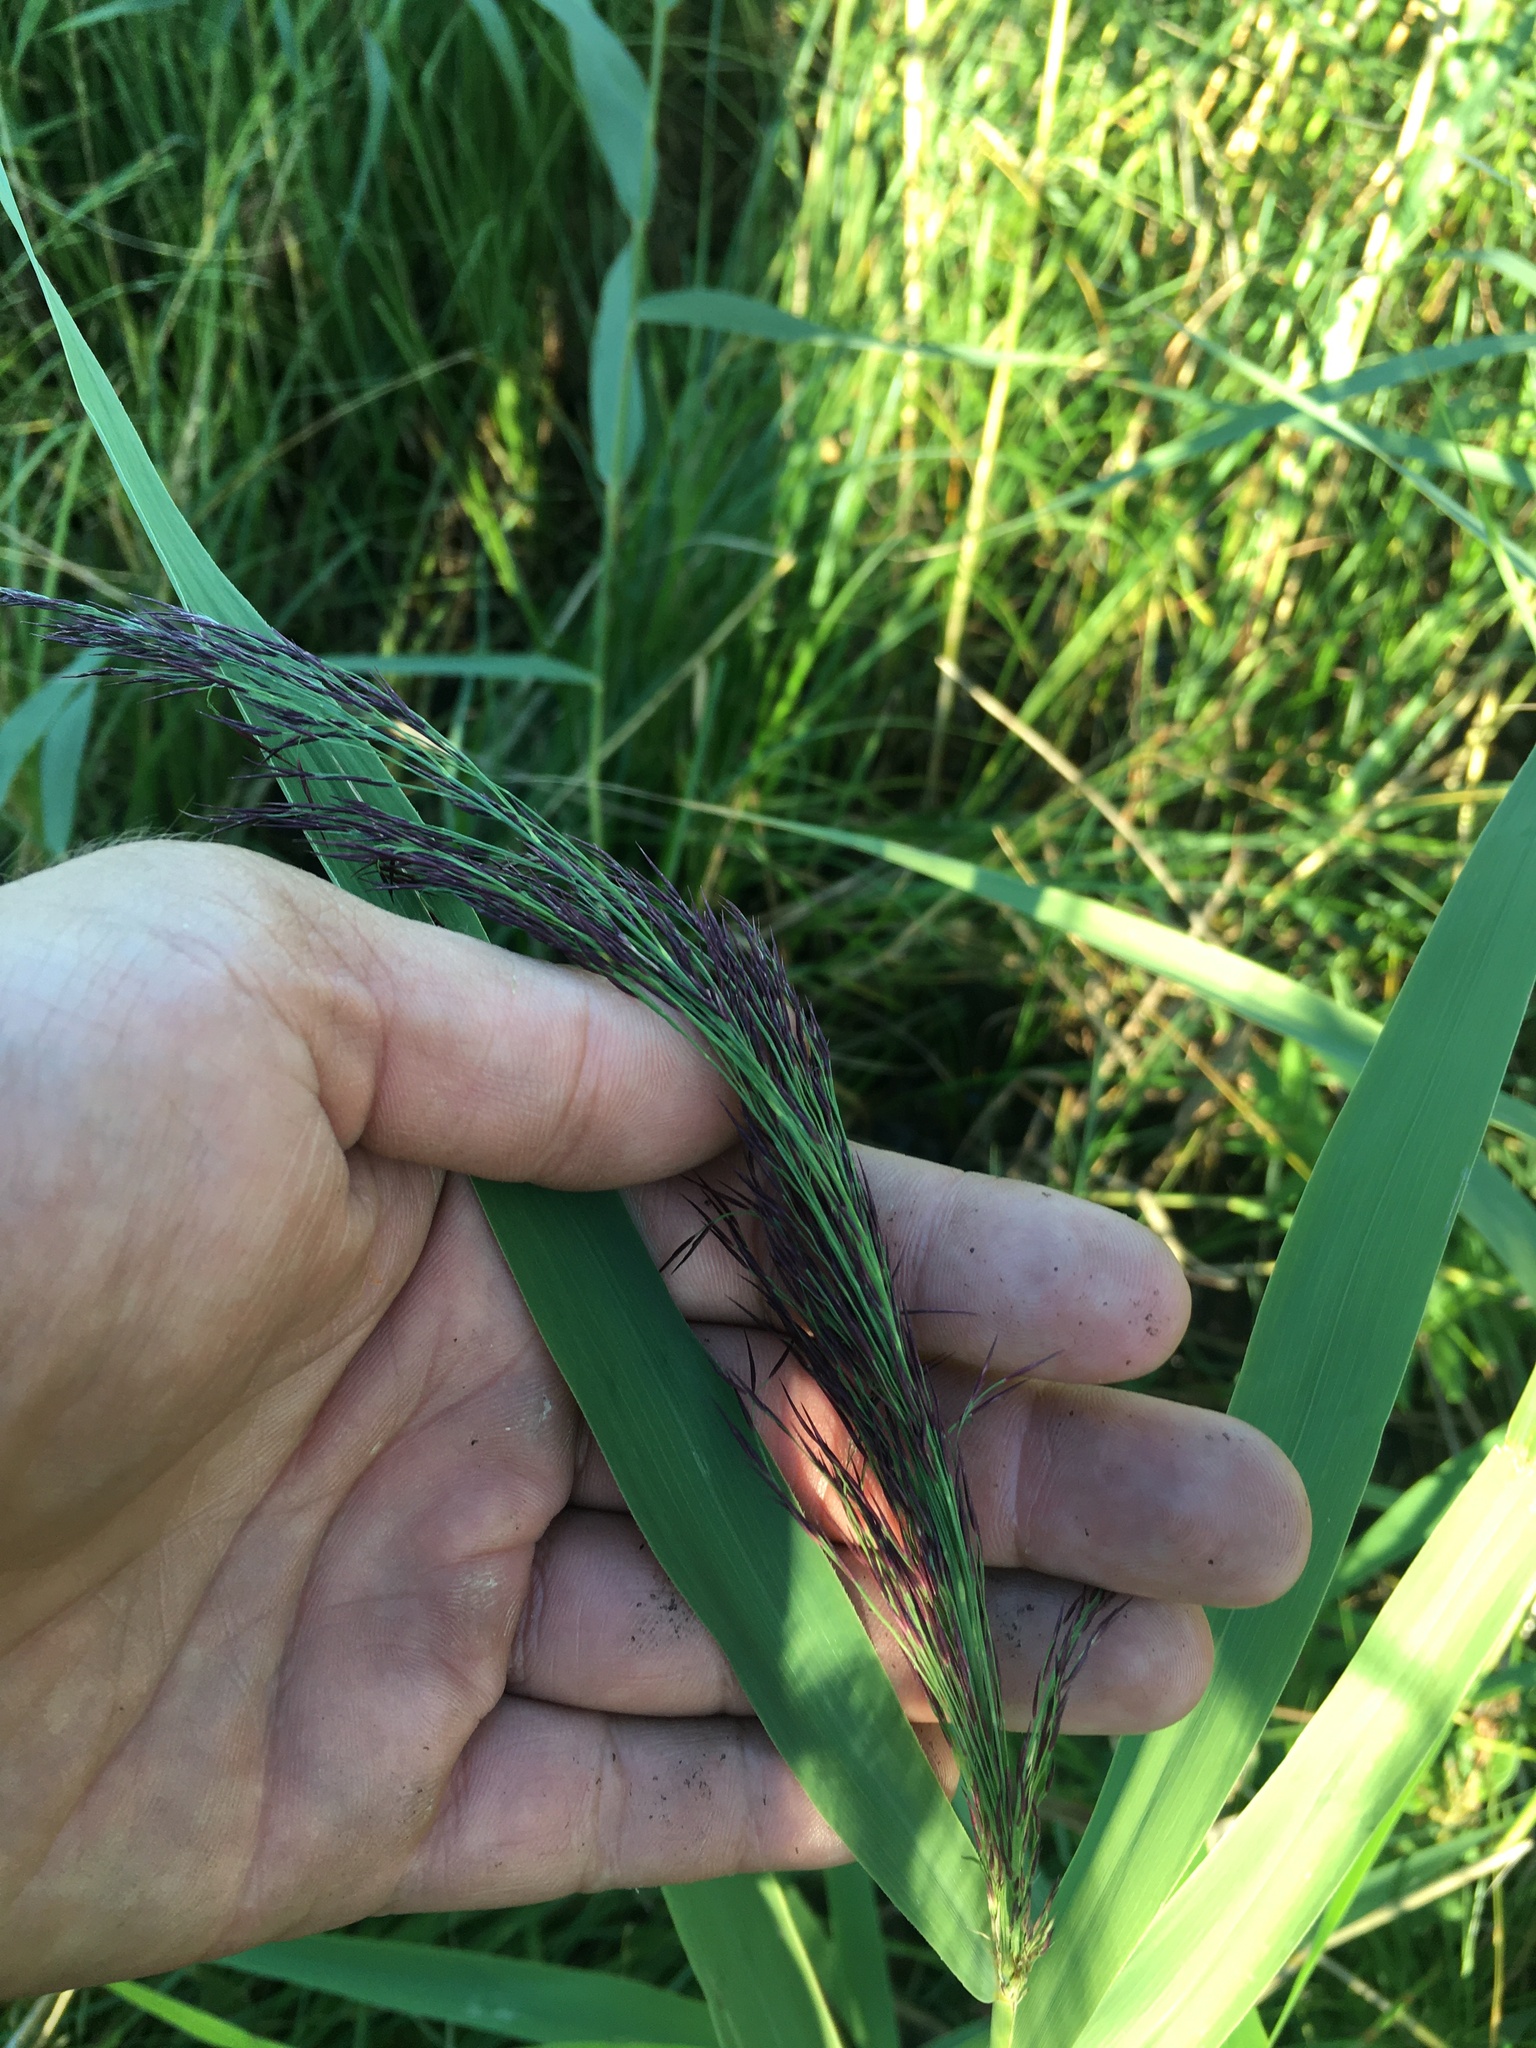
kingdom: Plantae
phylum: Tracheophyta
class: Liliopsida
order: Poales
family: Poaceae
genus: Phragmites
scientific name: Phragmites australis
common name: Common reed
